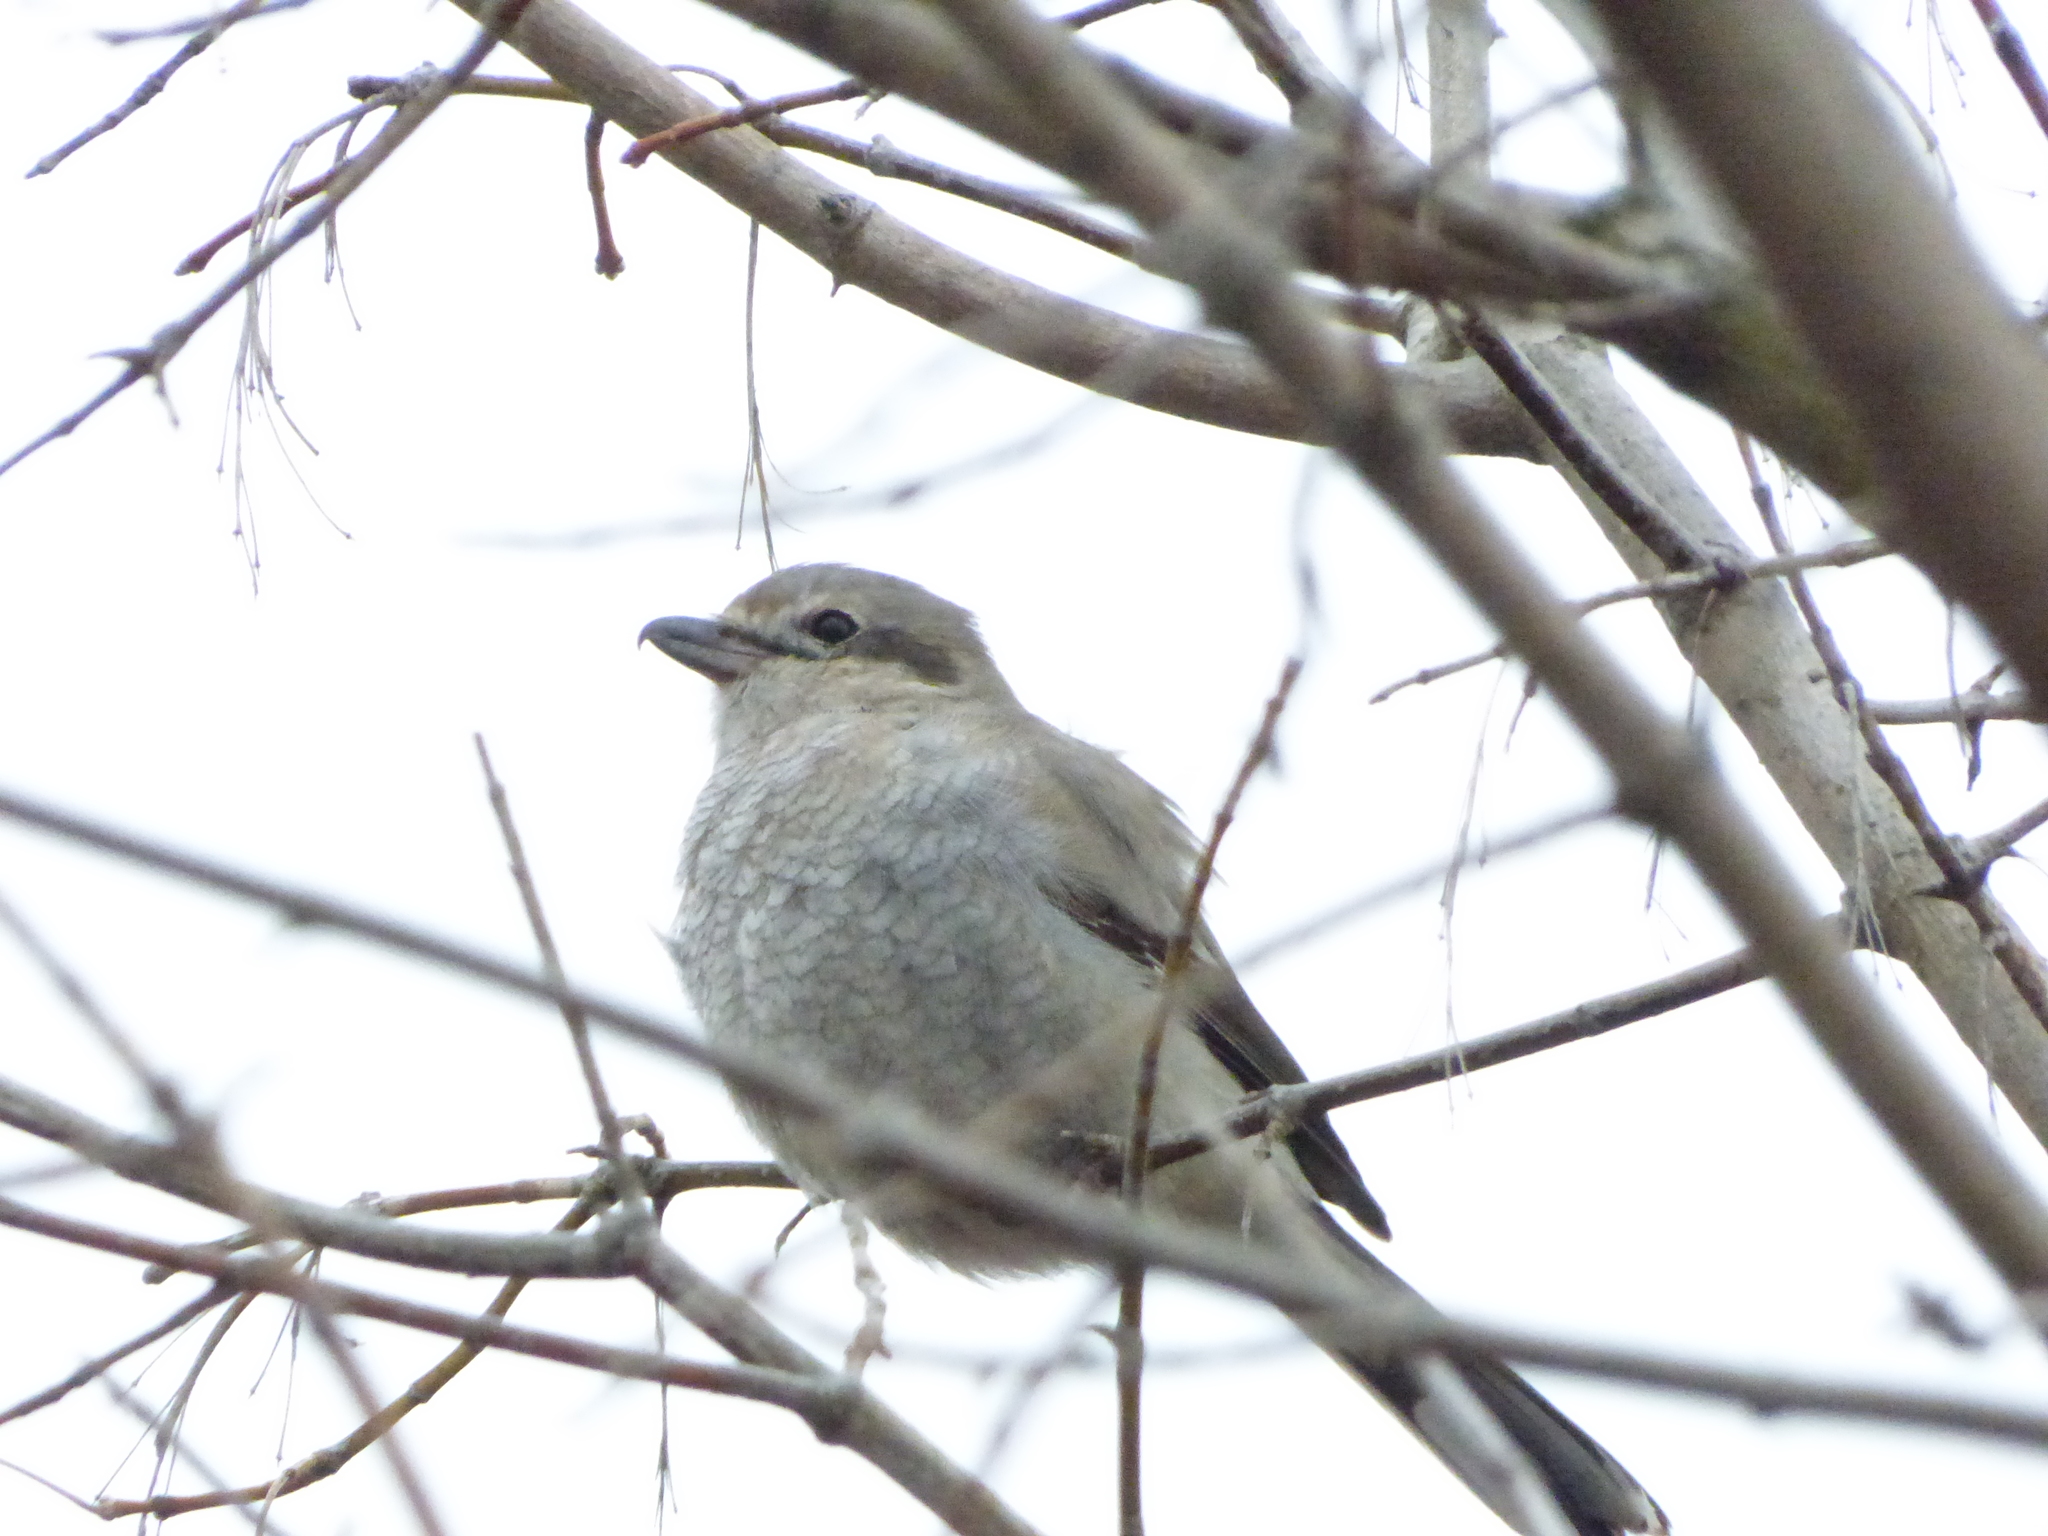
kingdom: Animalia
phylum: Chordata
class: Aves
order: Passeriformes
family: Laniidae
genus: Lanius
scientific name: Lanius borealis
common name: Northern shrike
